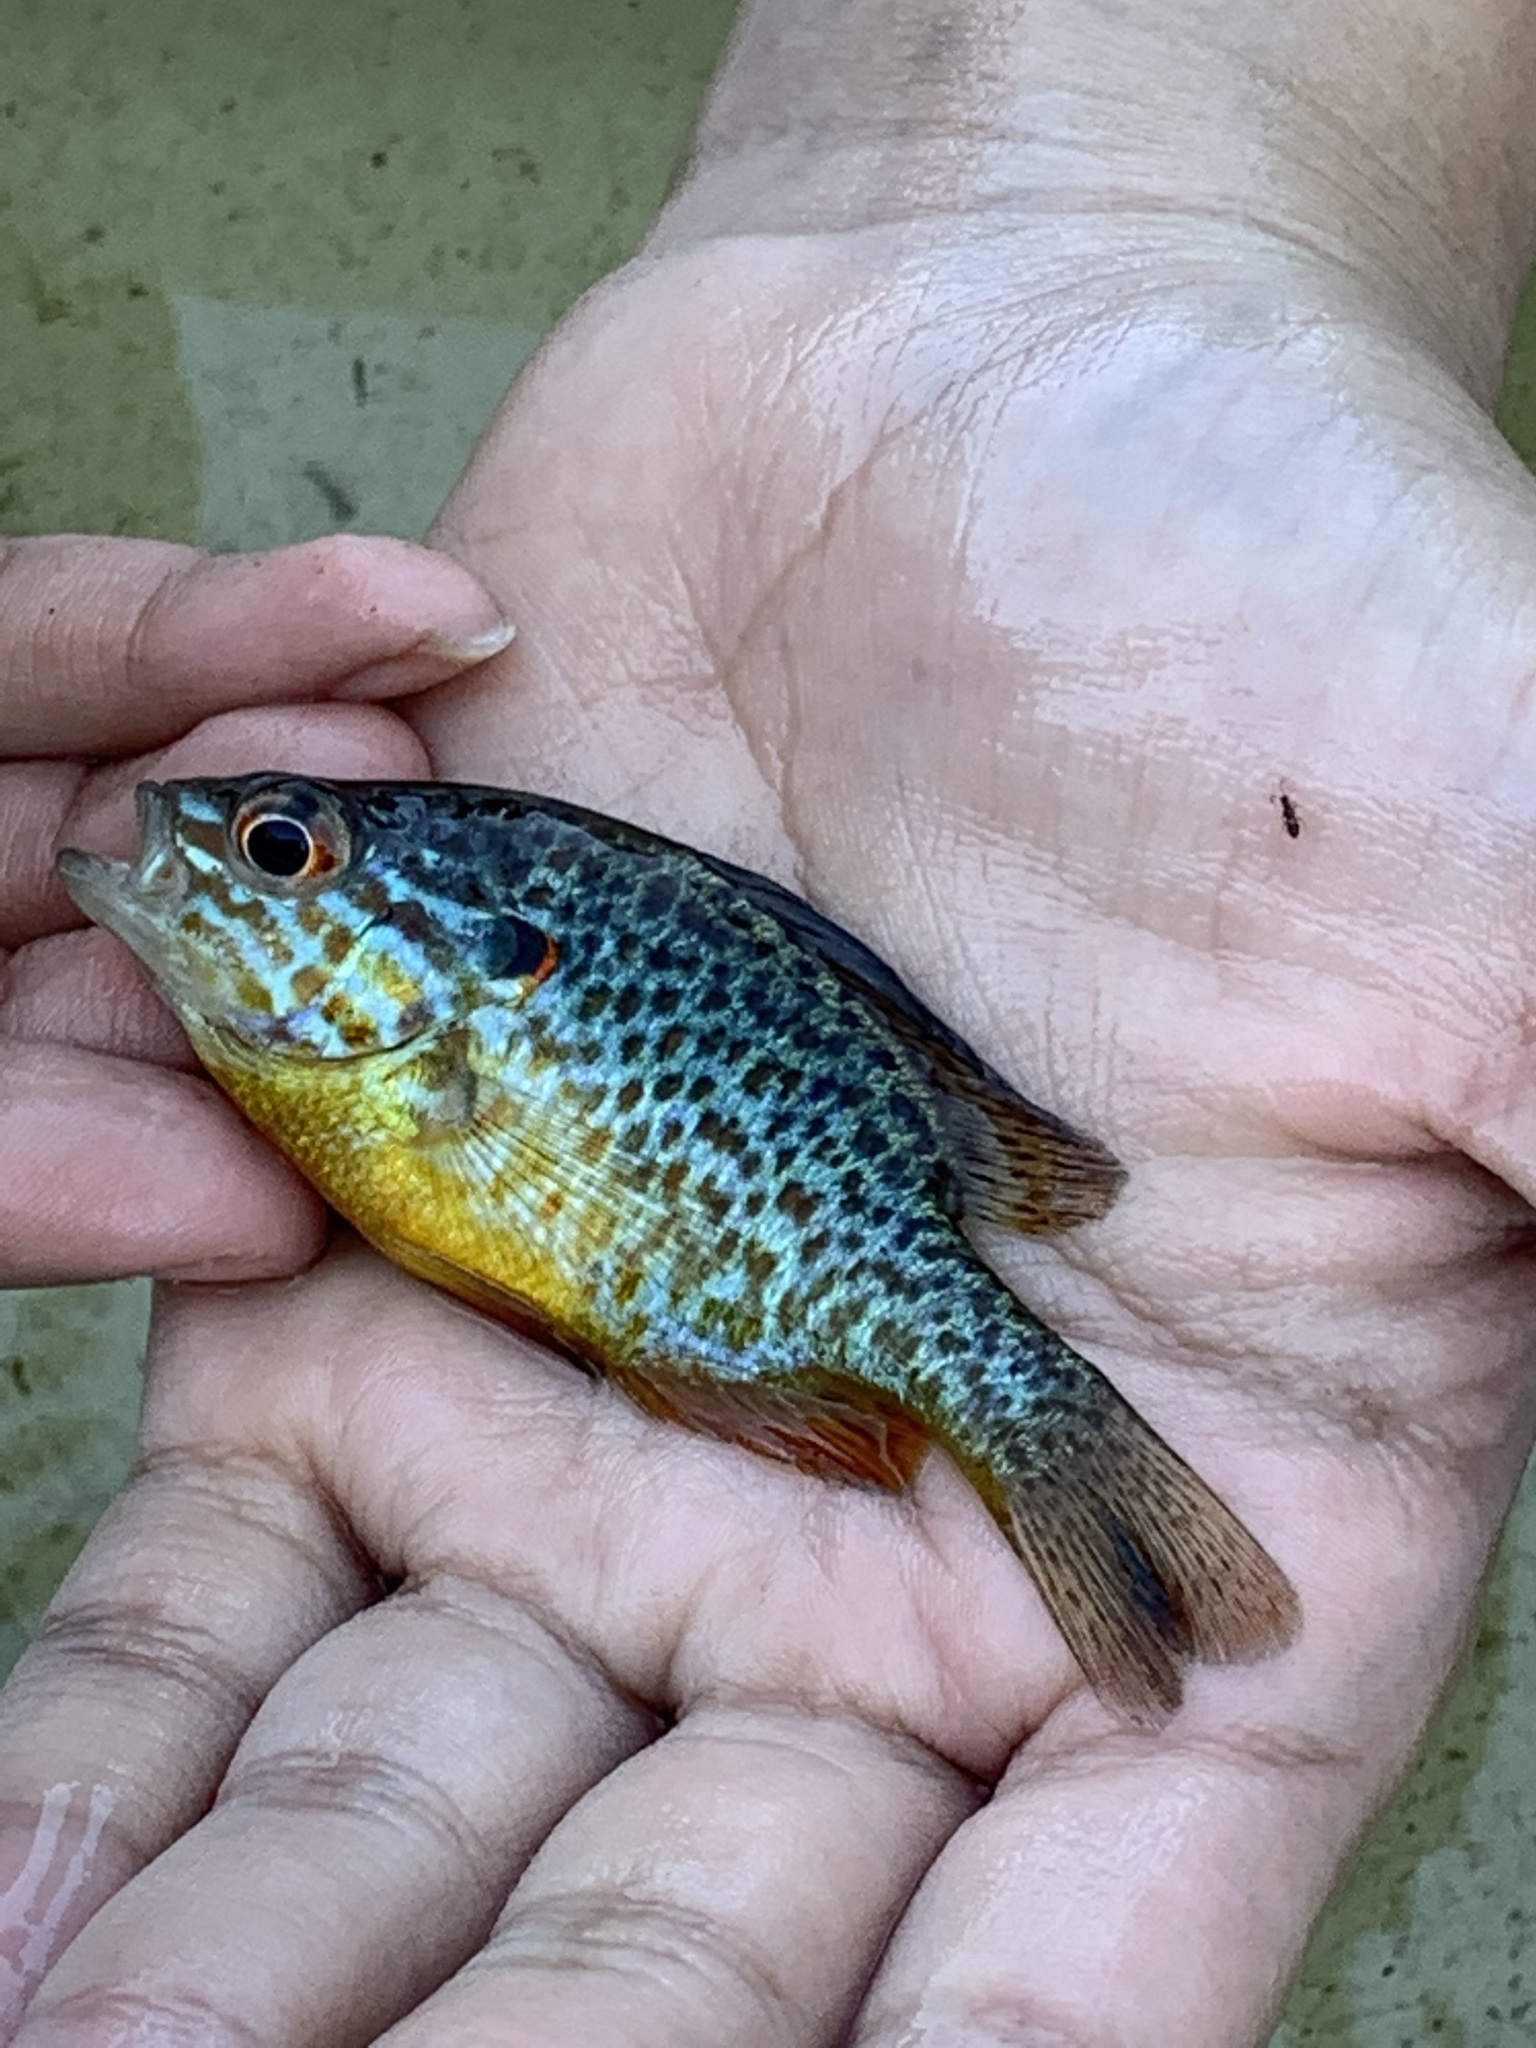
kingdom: Animalia
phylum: Chordata
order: Perciformes
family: Centrarchidae
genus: Lepomis
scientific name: Lepomis gibbosus
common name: Pumpkinseed
